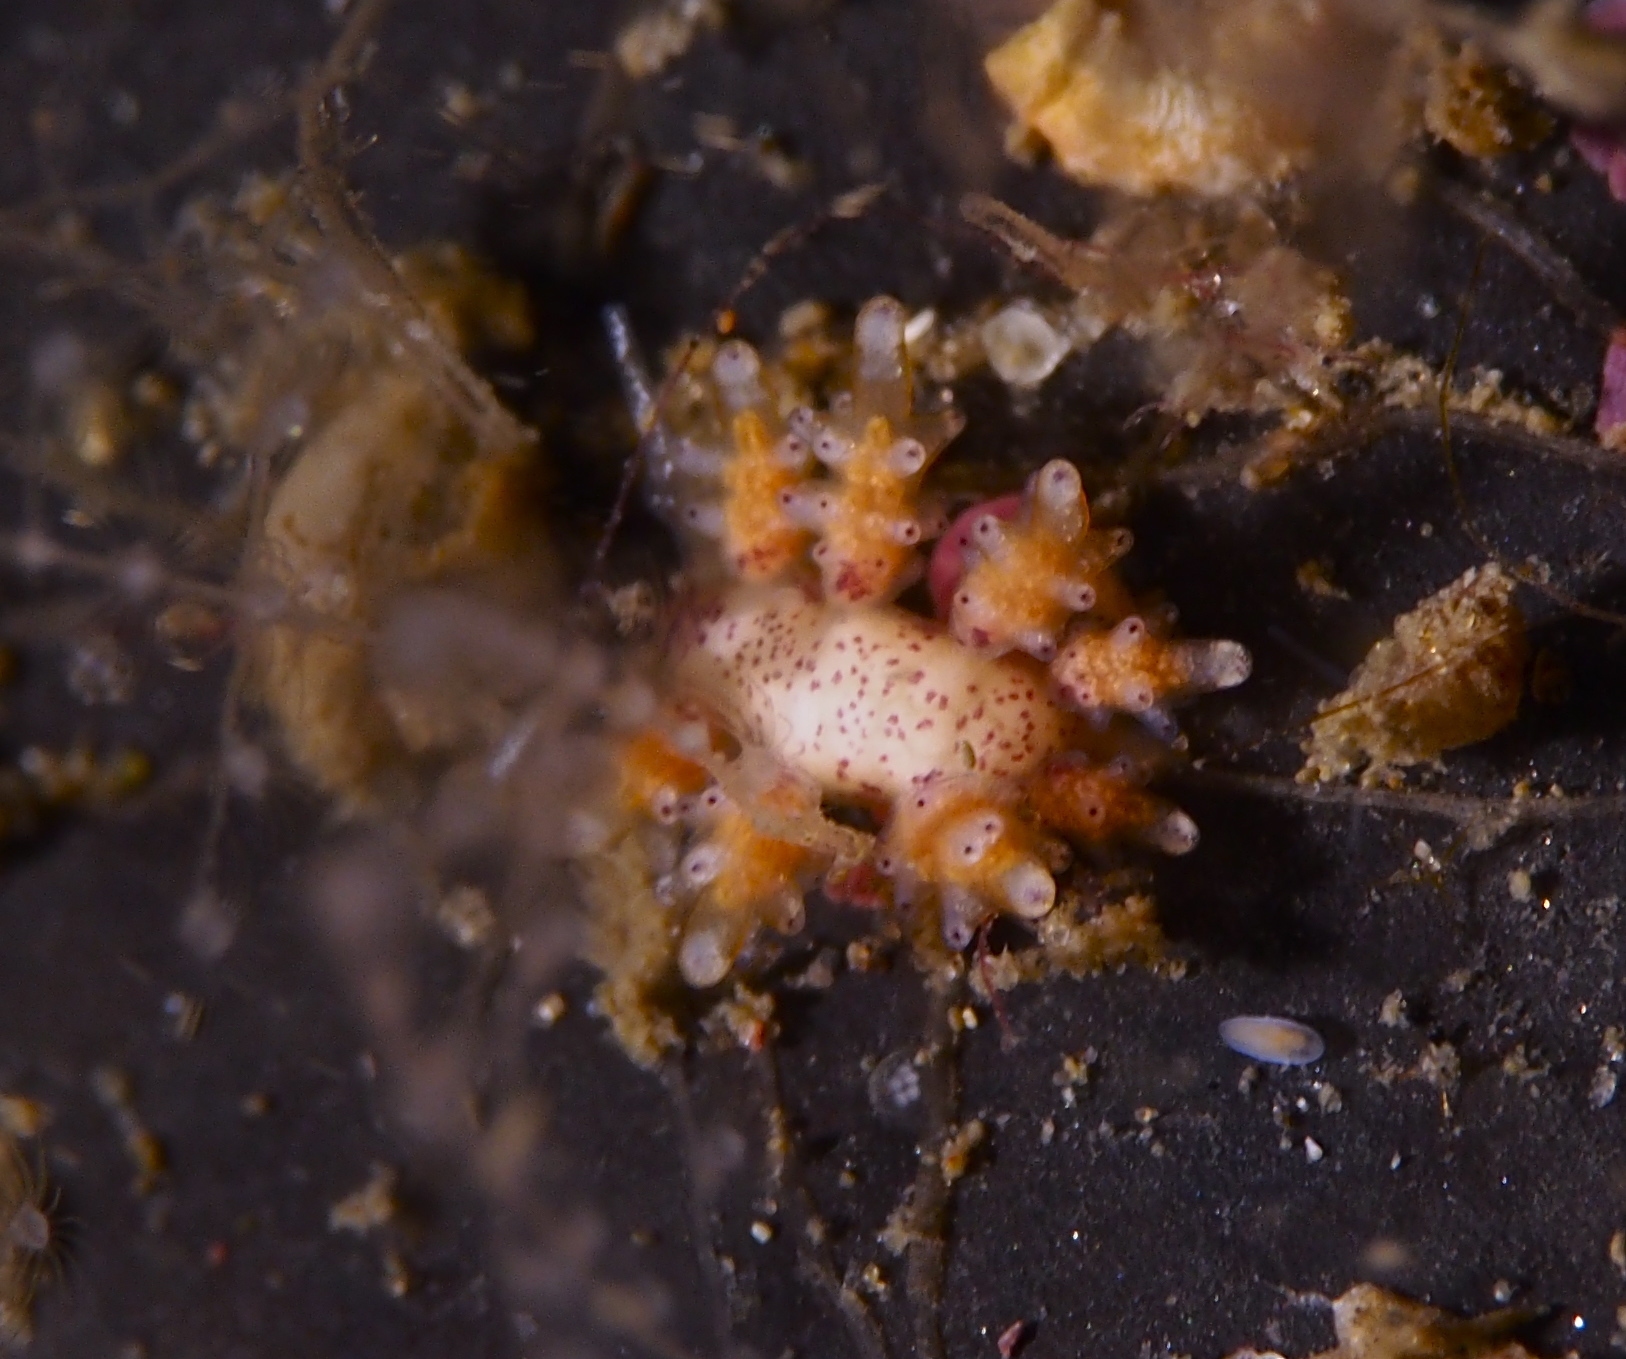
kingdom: Animalia
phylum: Mollusca
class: Gastropoda
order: Nudibranchia
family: Dotidae
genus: Doto
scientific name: Doto maculata
